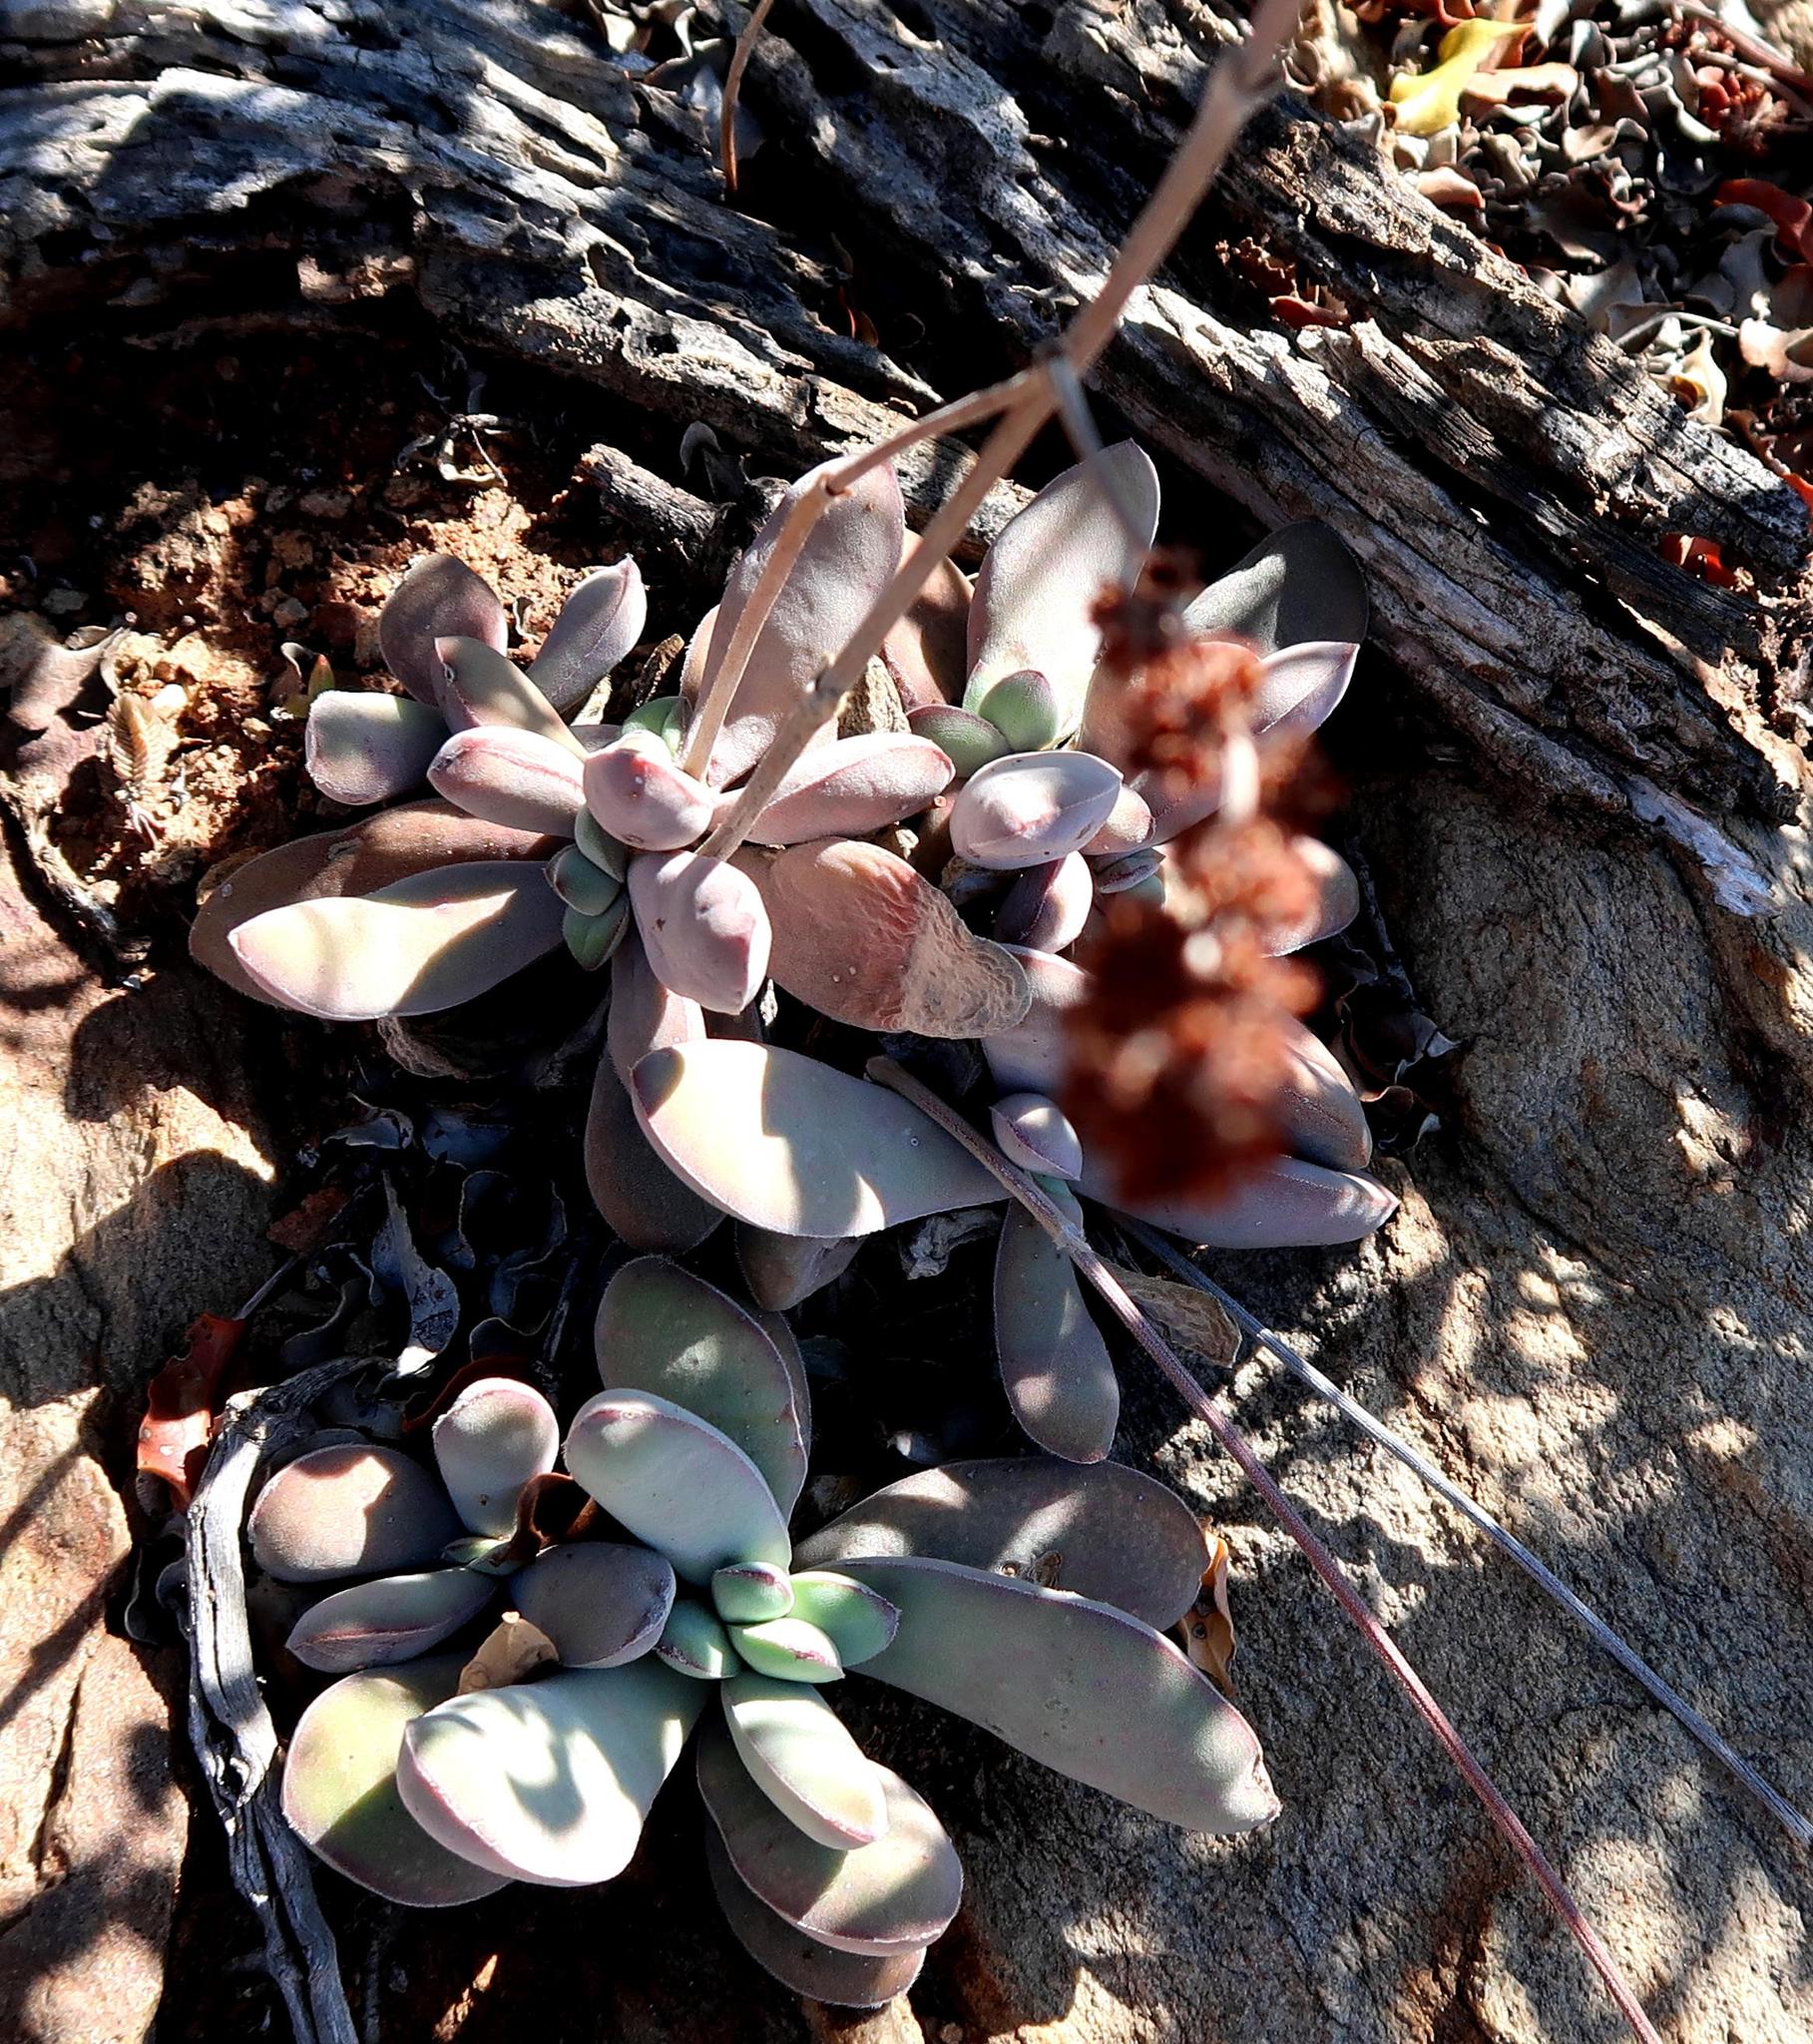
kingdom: Plantae
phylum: Tracheophyta
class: Magnoliopsida
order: Saxifragales
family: Crassulaceae
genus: Crassula
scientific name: Crassula cotyledonis
